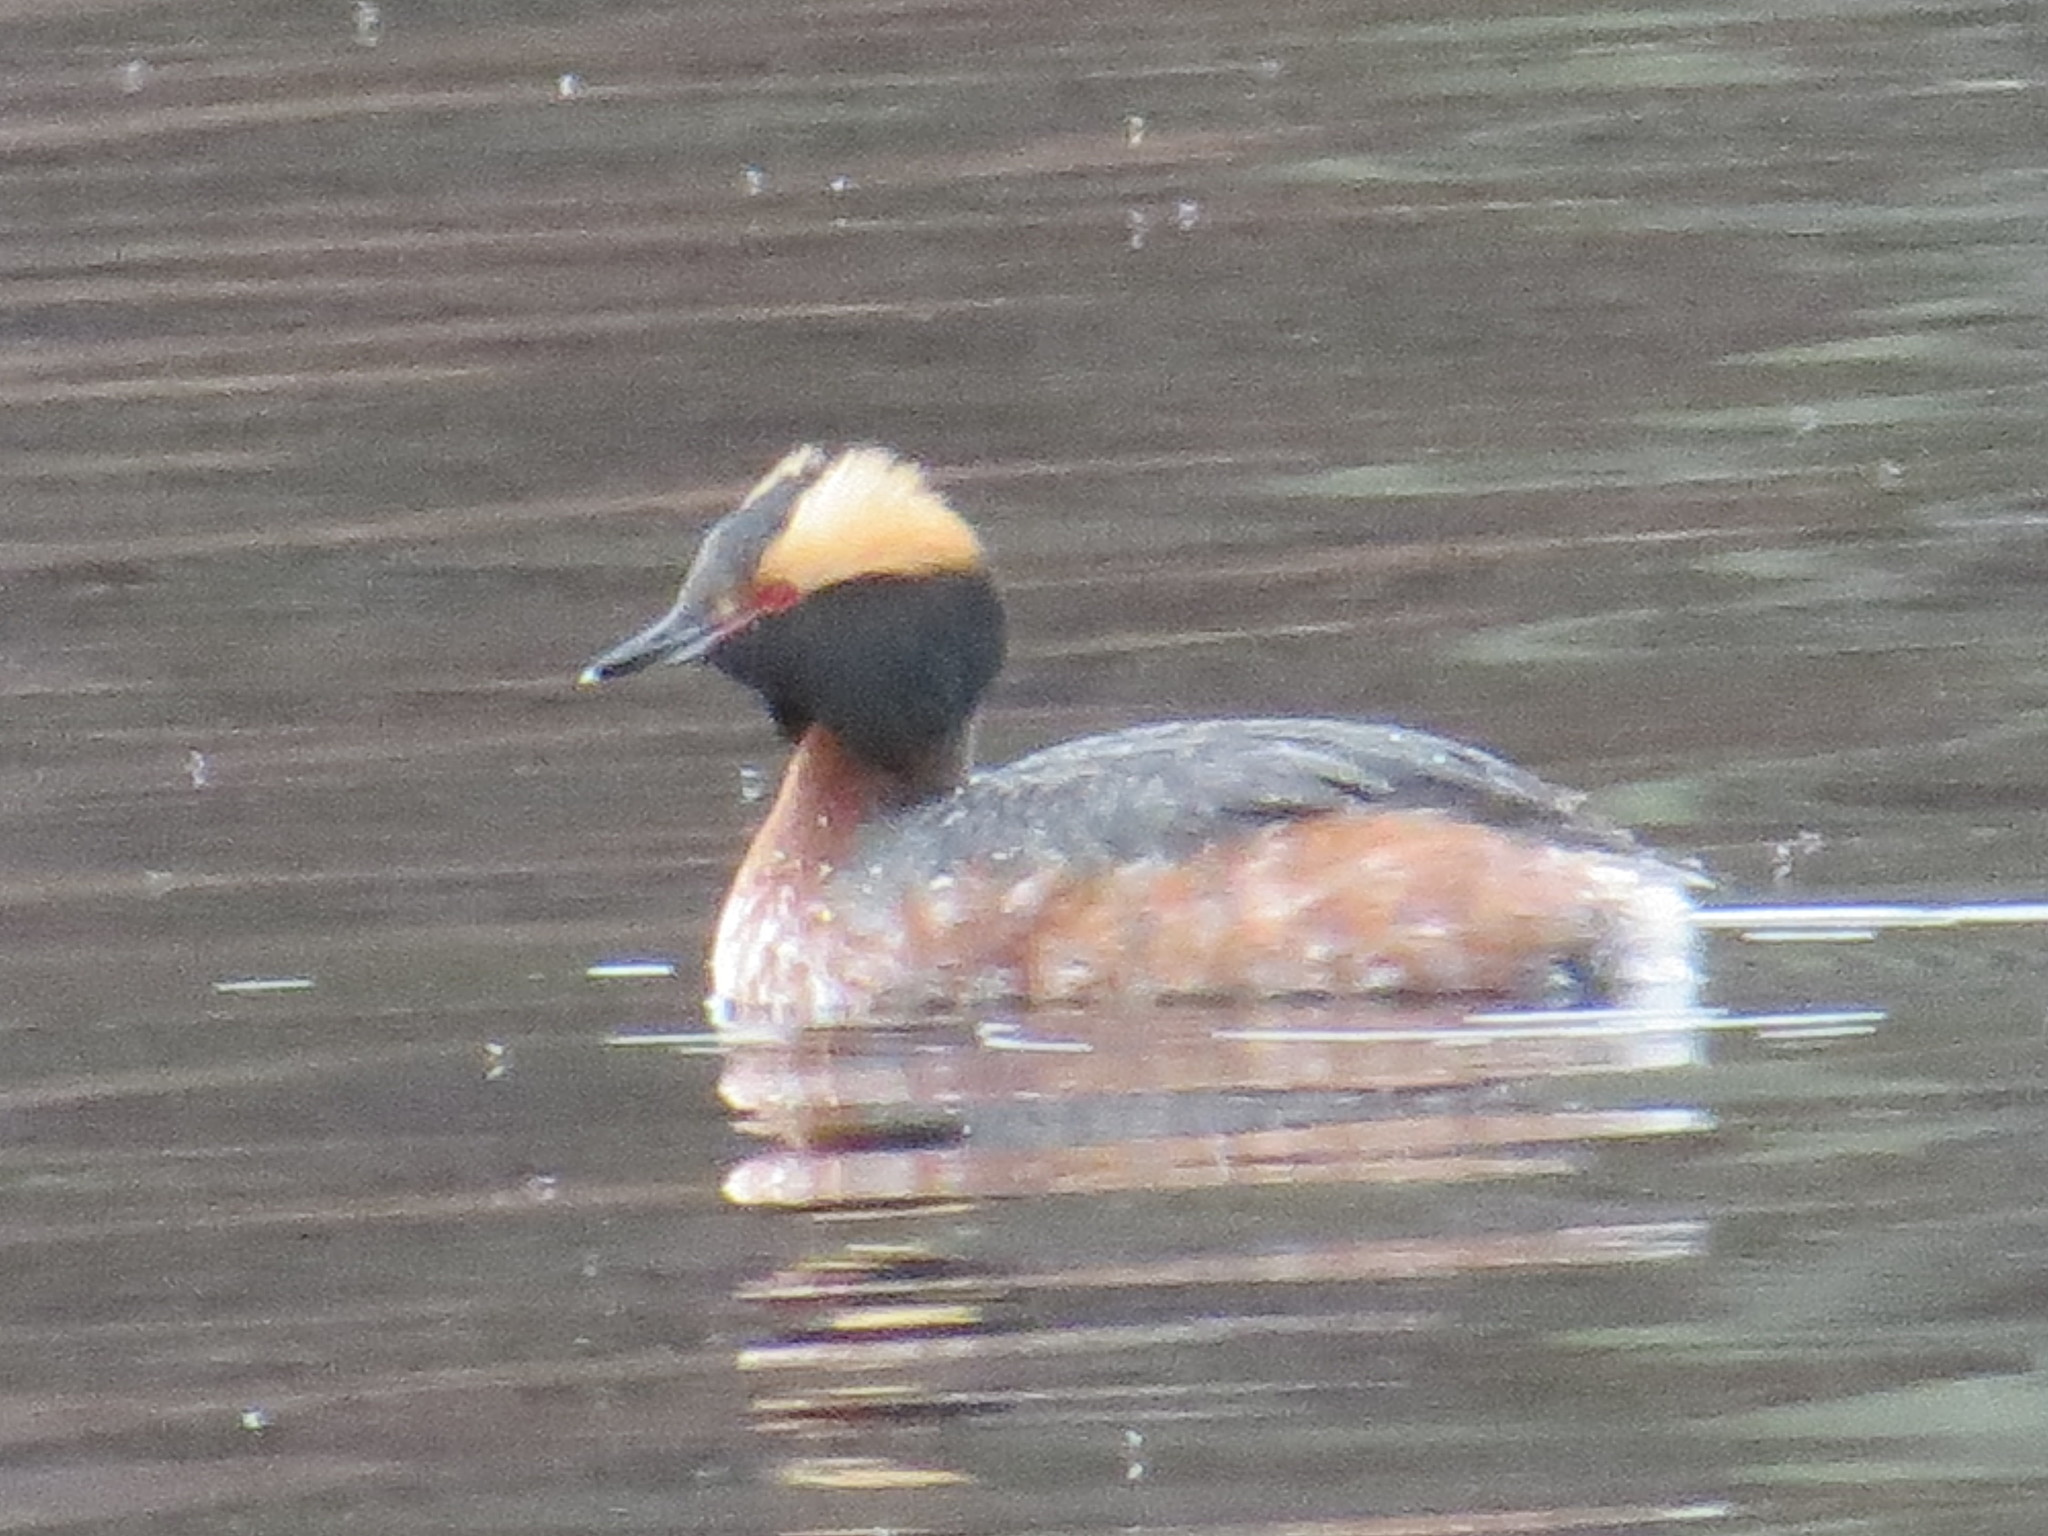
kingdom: Animalia
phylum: Chordata
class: Aves
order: Podicipediformes
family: Podicipedidae
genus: Podiceps
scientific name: Podiceps auritus
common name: Horned grebe
